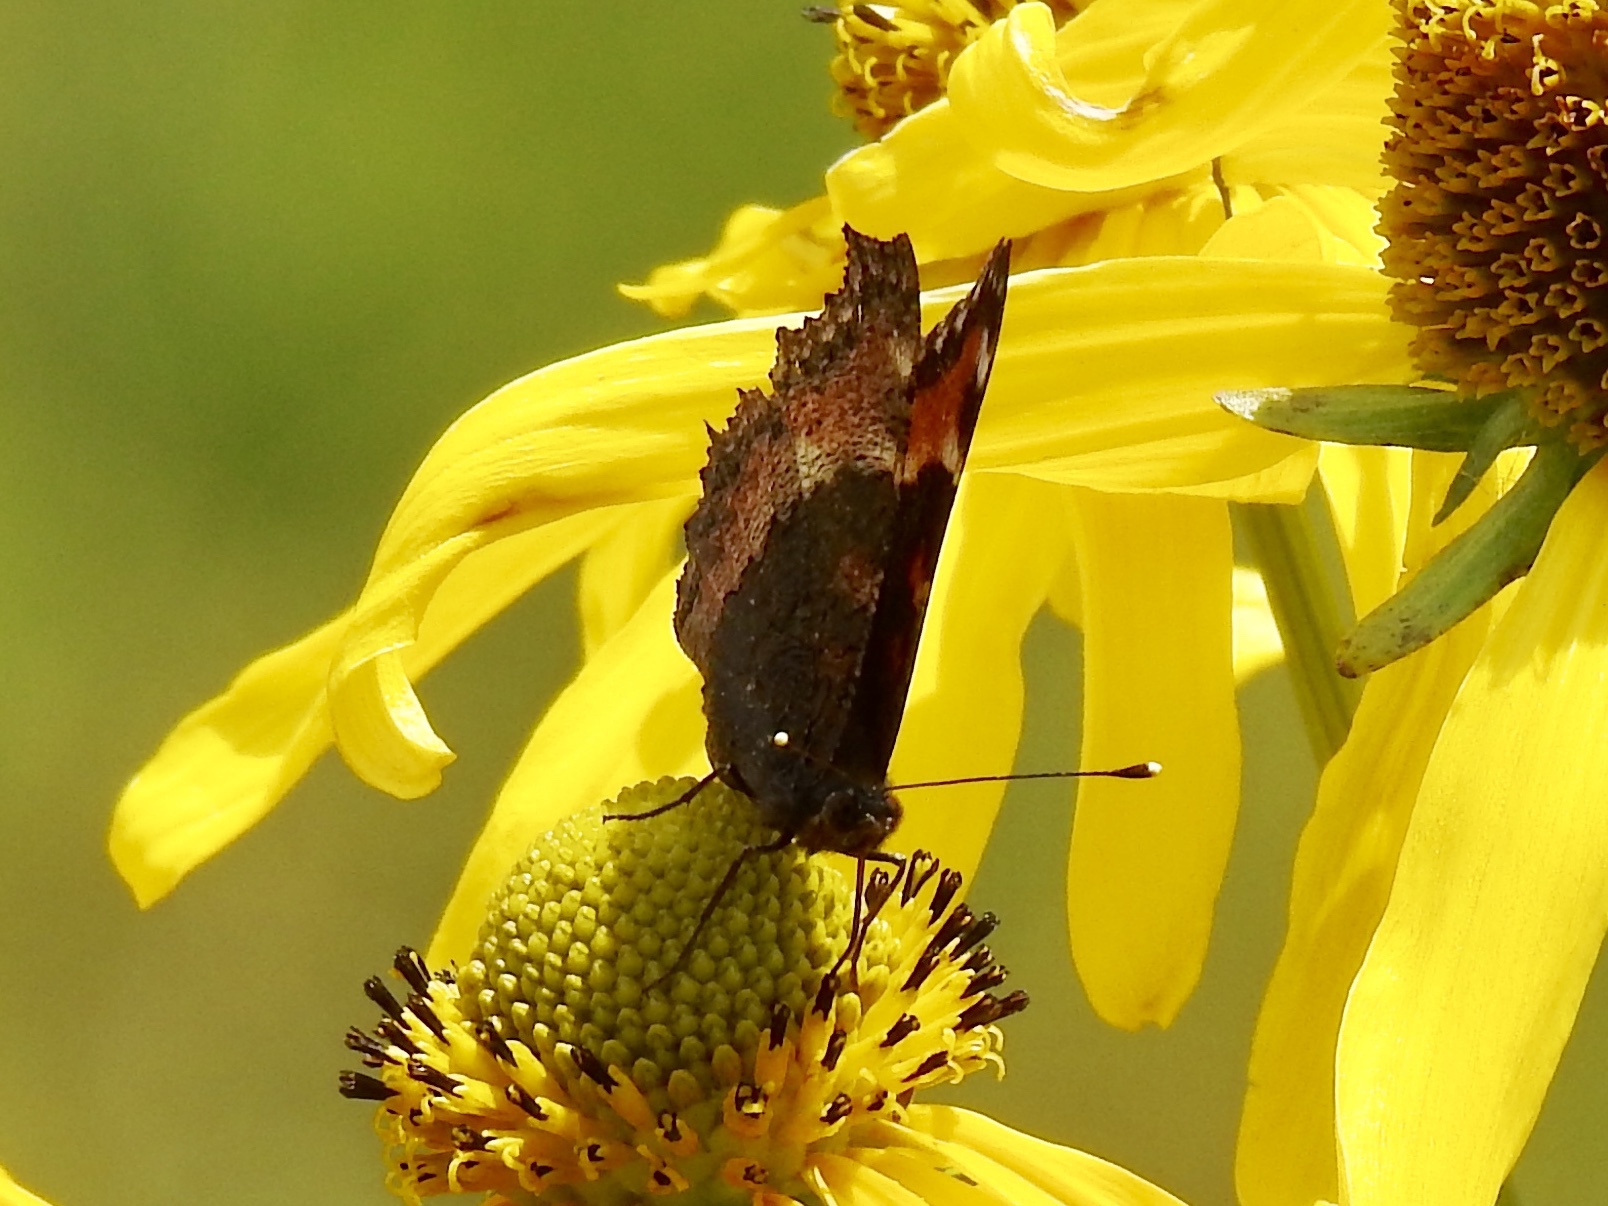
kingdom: Animalia
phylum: Arthropoda
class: Insecta
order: Lepidoptera
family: Nymphalidae
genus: Aglais
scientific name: Aglais milberti
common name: Milbert's tortoiseshell
